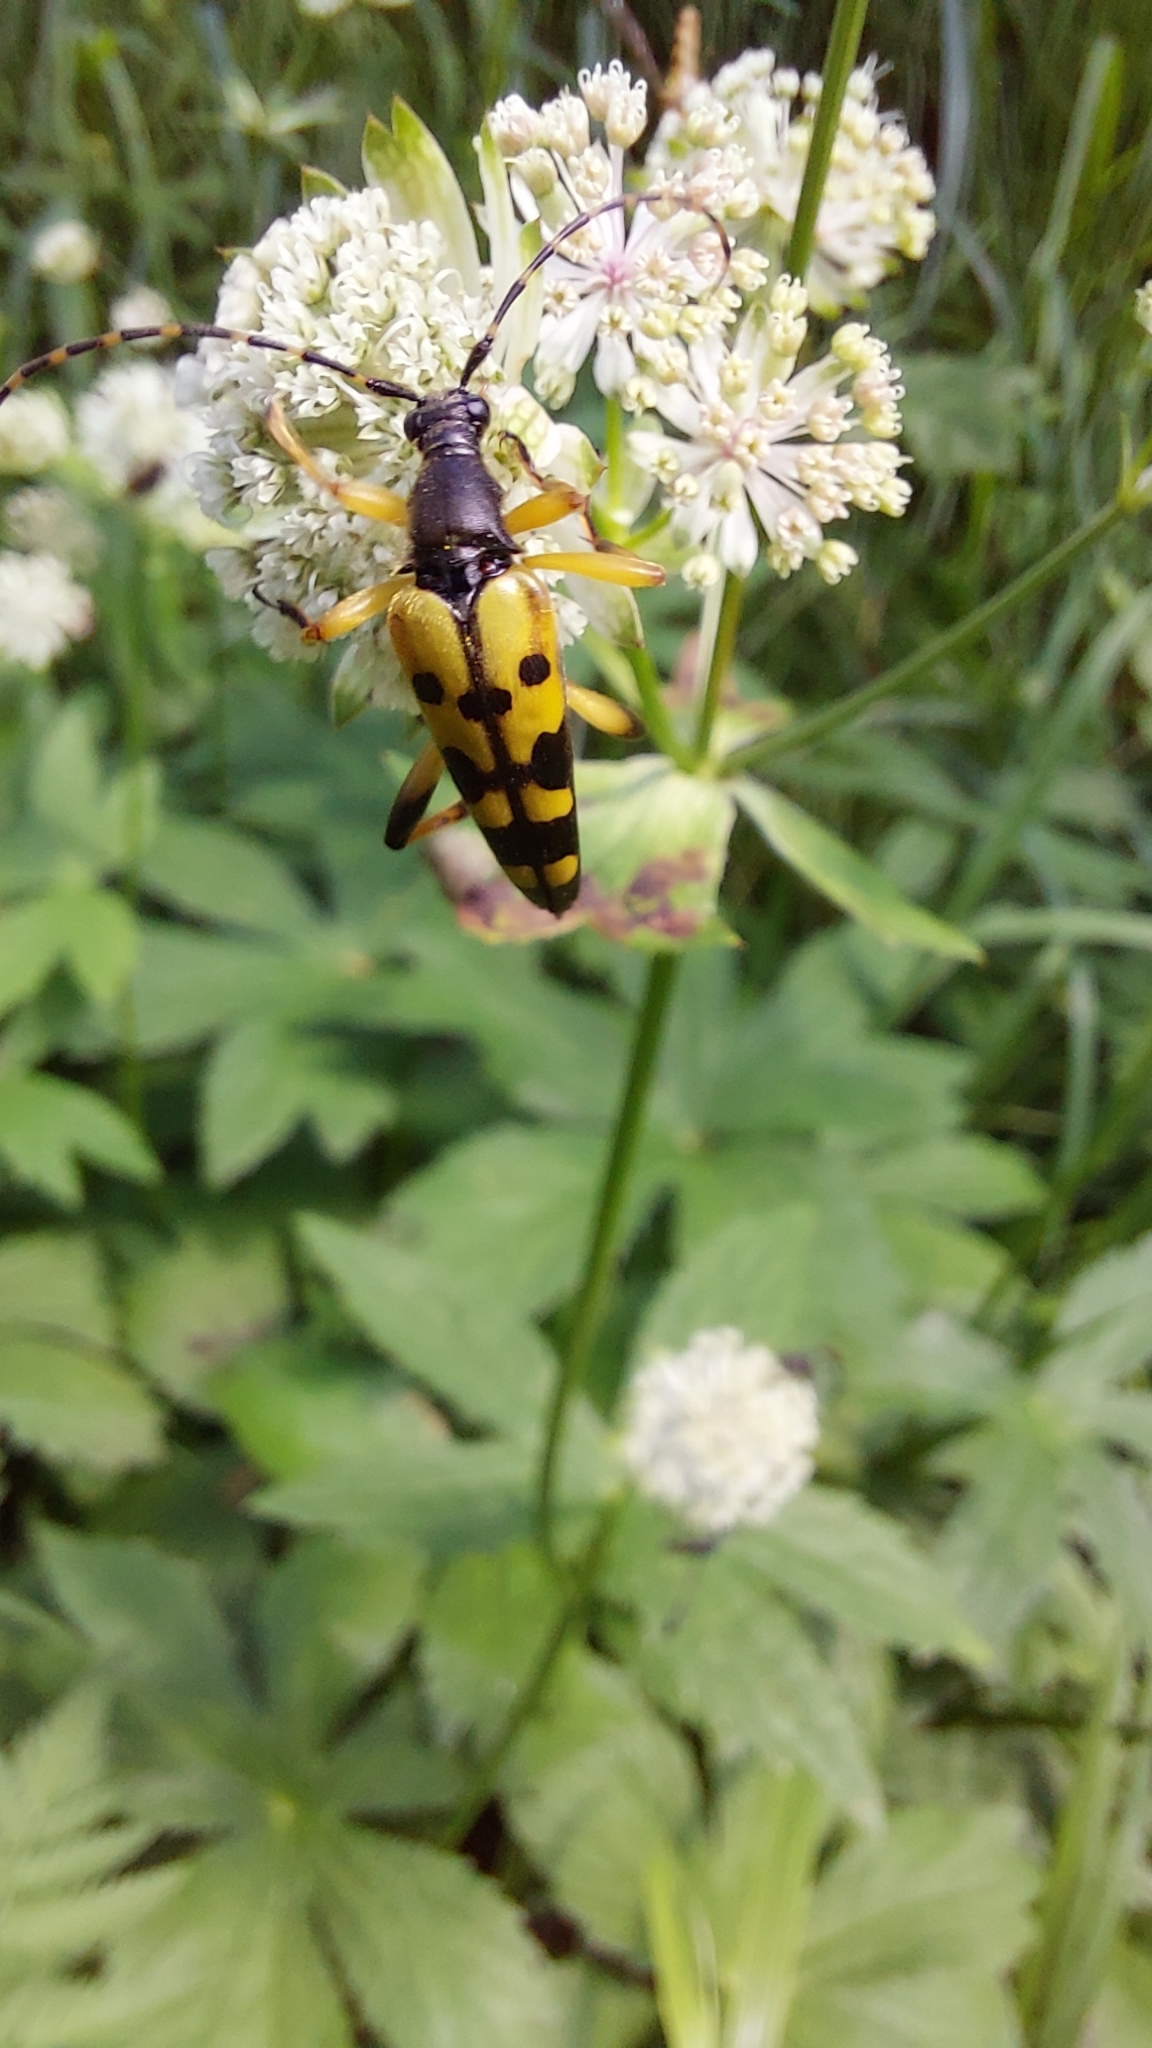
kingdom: Animalia
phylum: Arthropoda
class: Insecta
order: Coleoptera
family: Cerambycidae
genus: Rutpela
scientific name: Rutpela maculata
